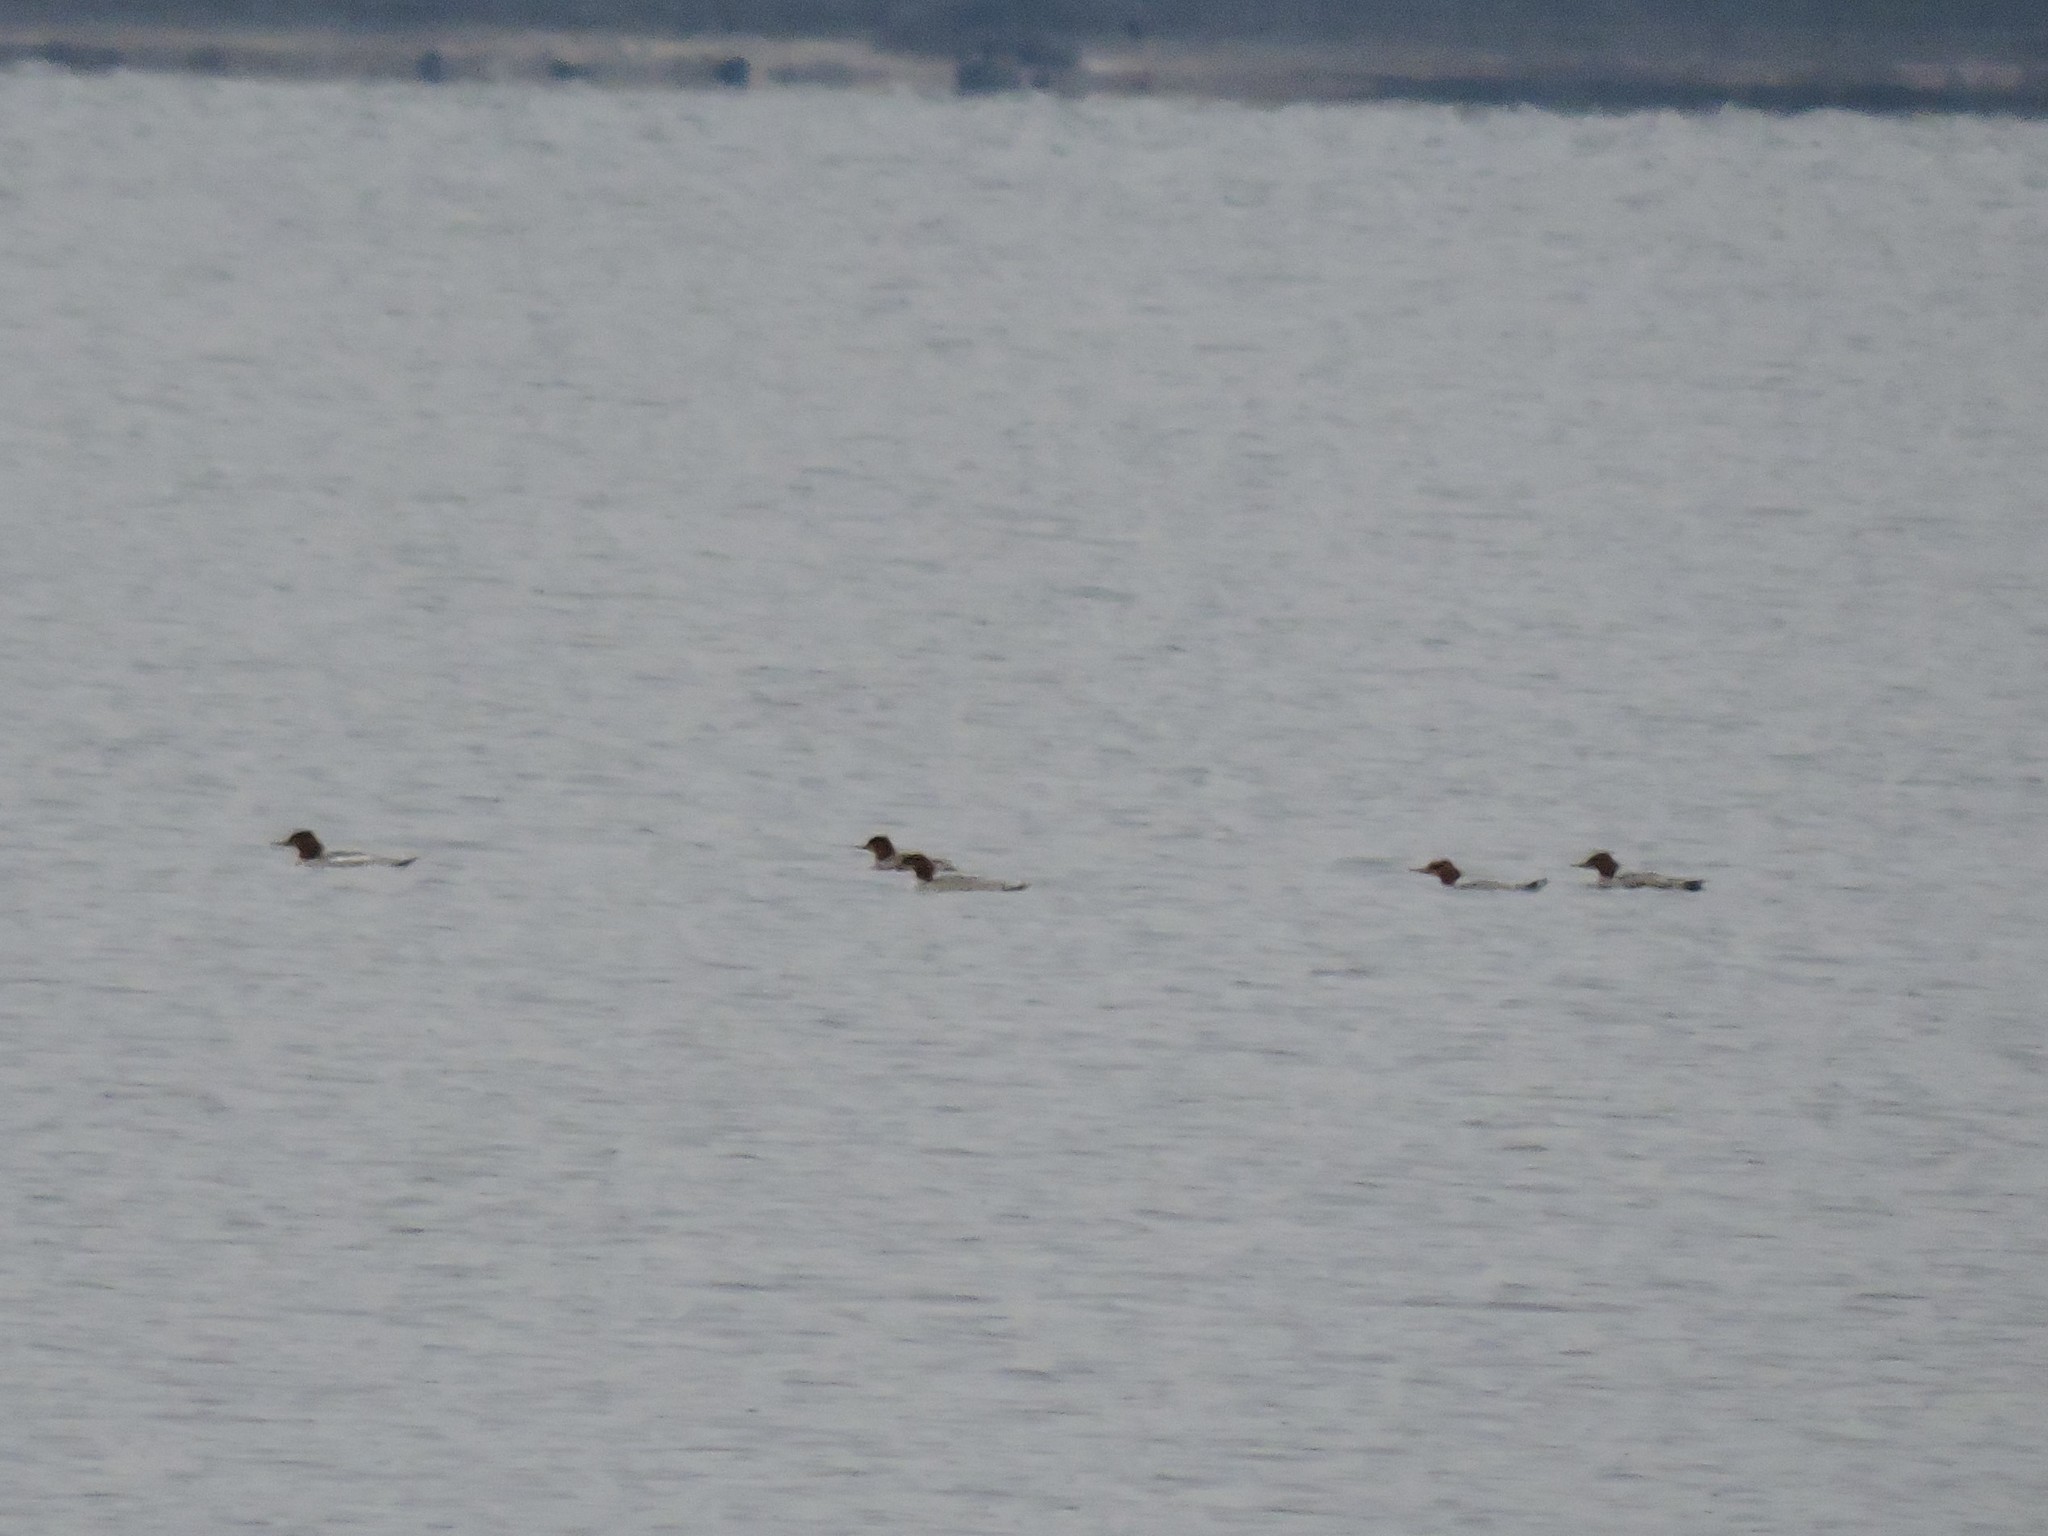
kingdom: Animalia
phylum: Chordata
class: Aves
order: Anseriformes
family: Anatidae
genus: Mergus
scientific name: Mergus merganser
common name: Common merganser
